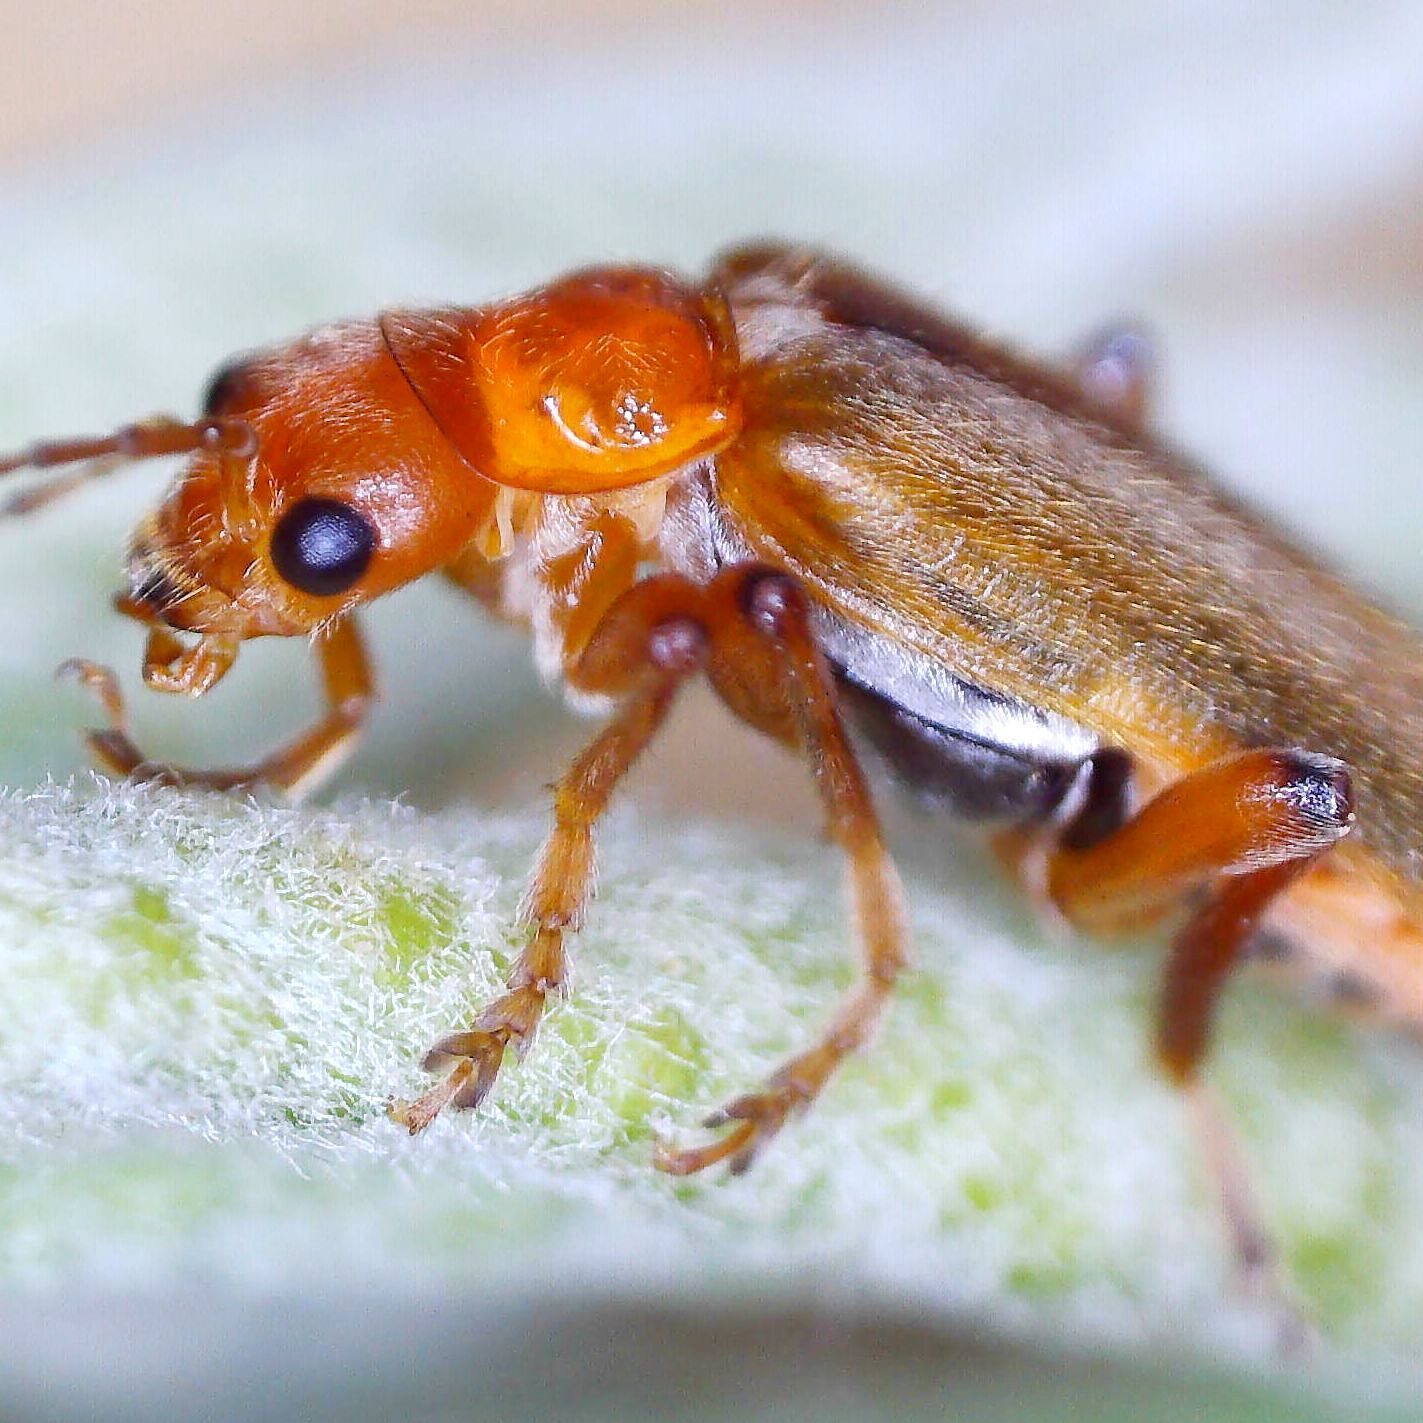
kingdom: Animalia
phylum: Arthropoda
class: Insecta
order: Coleoptera
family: Cantharidae
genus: Cantharis
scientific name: Cantharis cryptica
